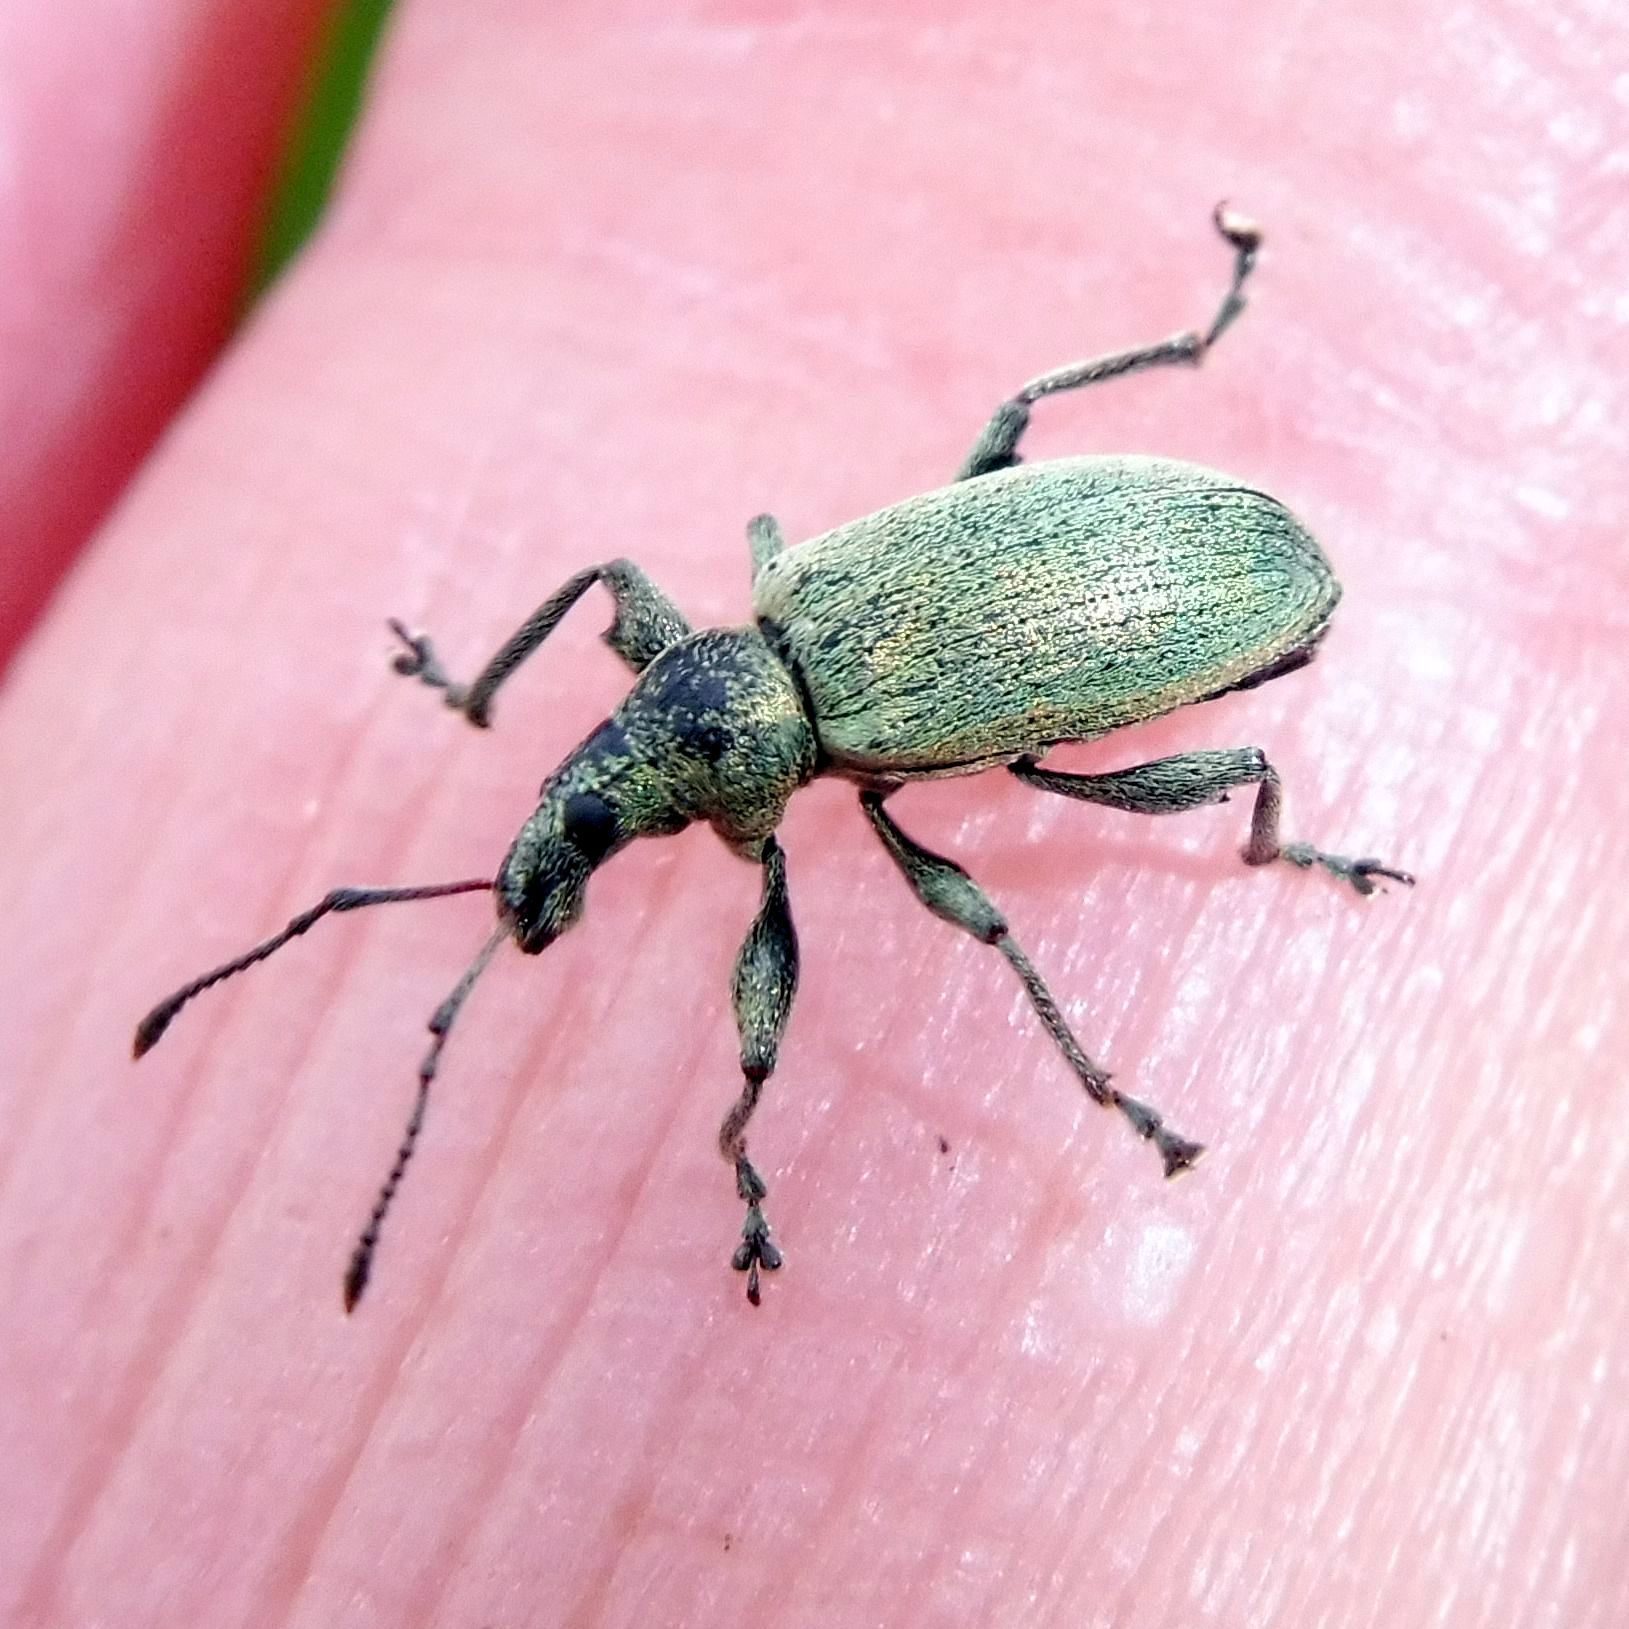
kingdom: Animalia
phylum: Arthropoda
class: Insecta
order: Coleoptera
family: Curculionidae
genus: Phyllobius
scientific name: Phyllobius pomaceus
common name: Green nettle weevil
